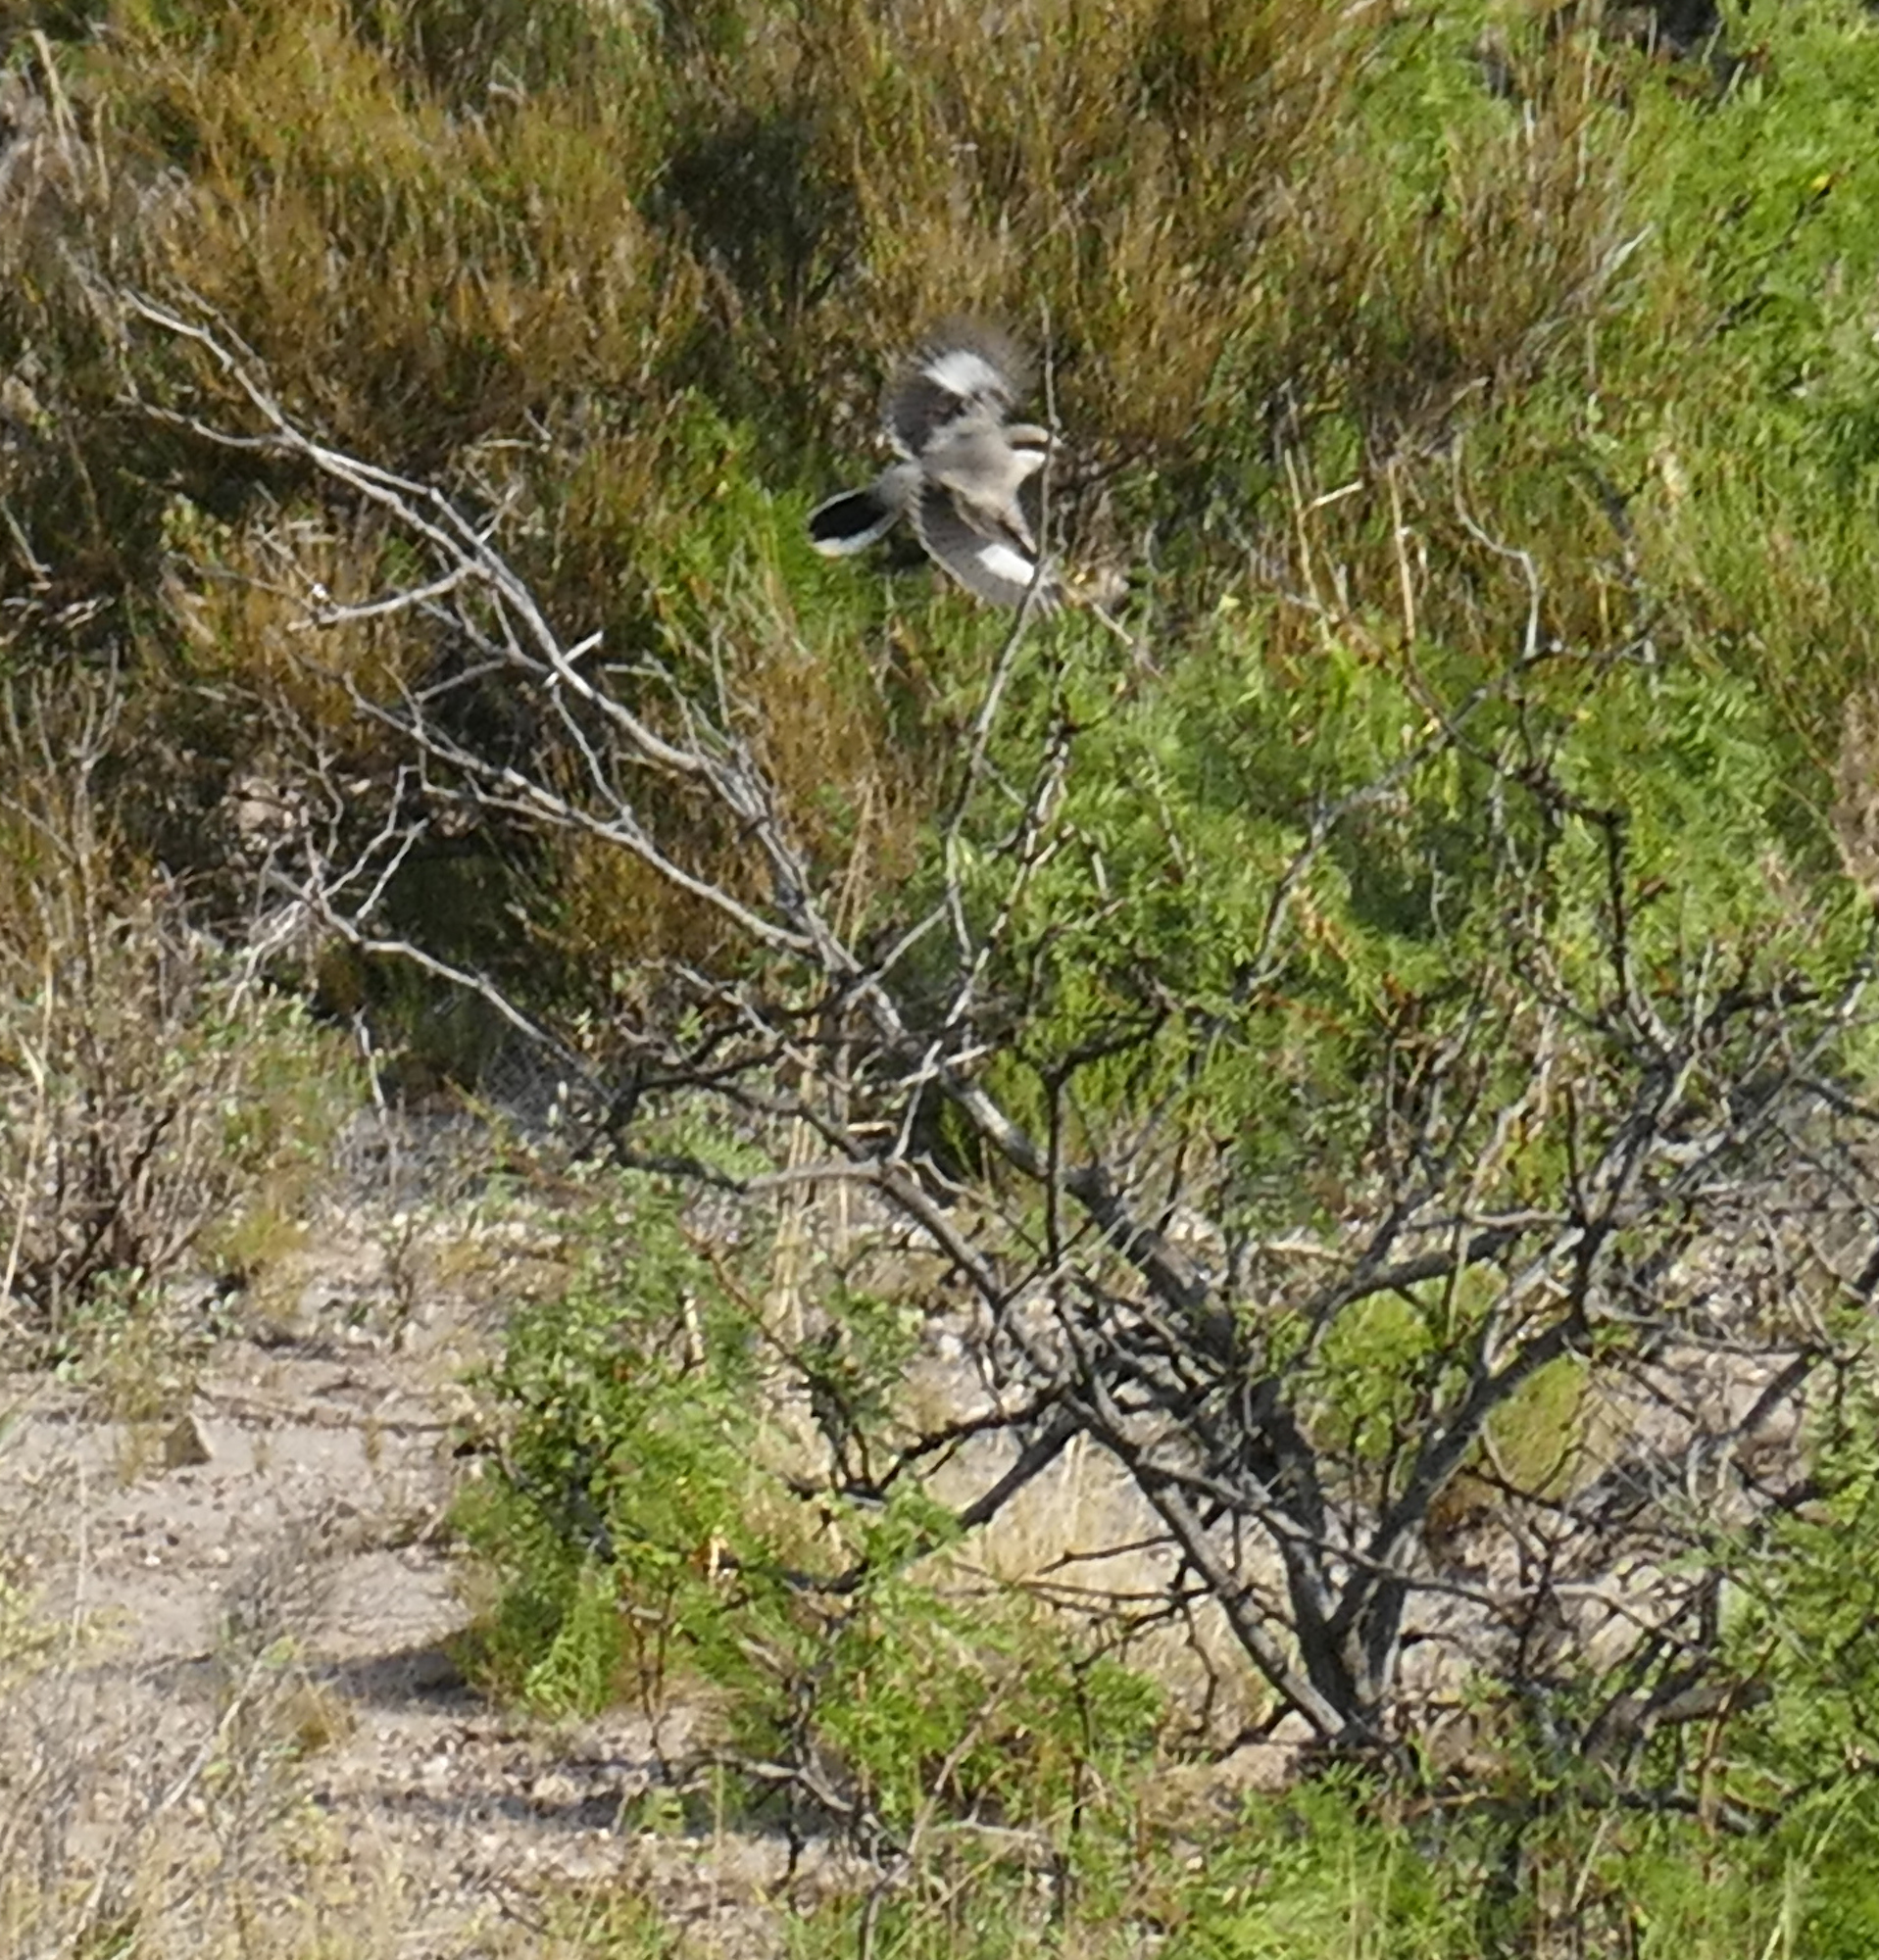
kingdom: Animalia
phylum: Chordata
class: Aves
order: Passeriformes
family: Laniidae
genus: Lanius
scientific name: Lanius ludovicianus
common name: Loggerhead shrike
